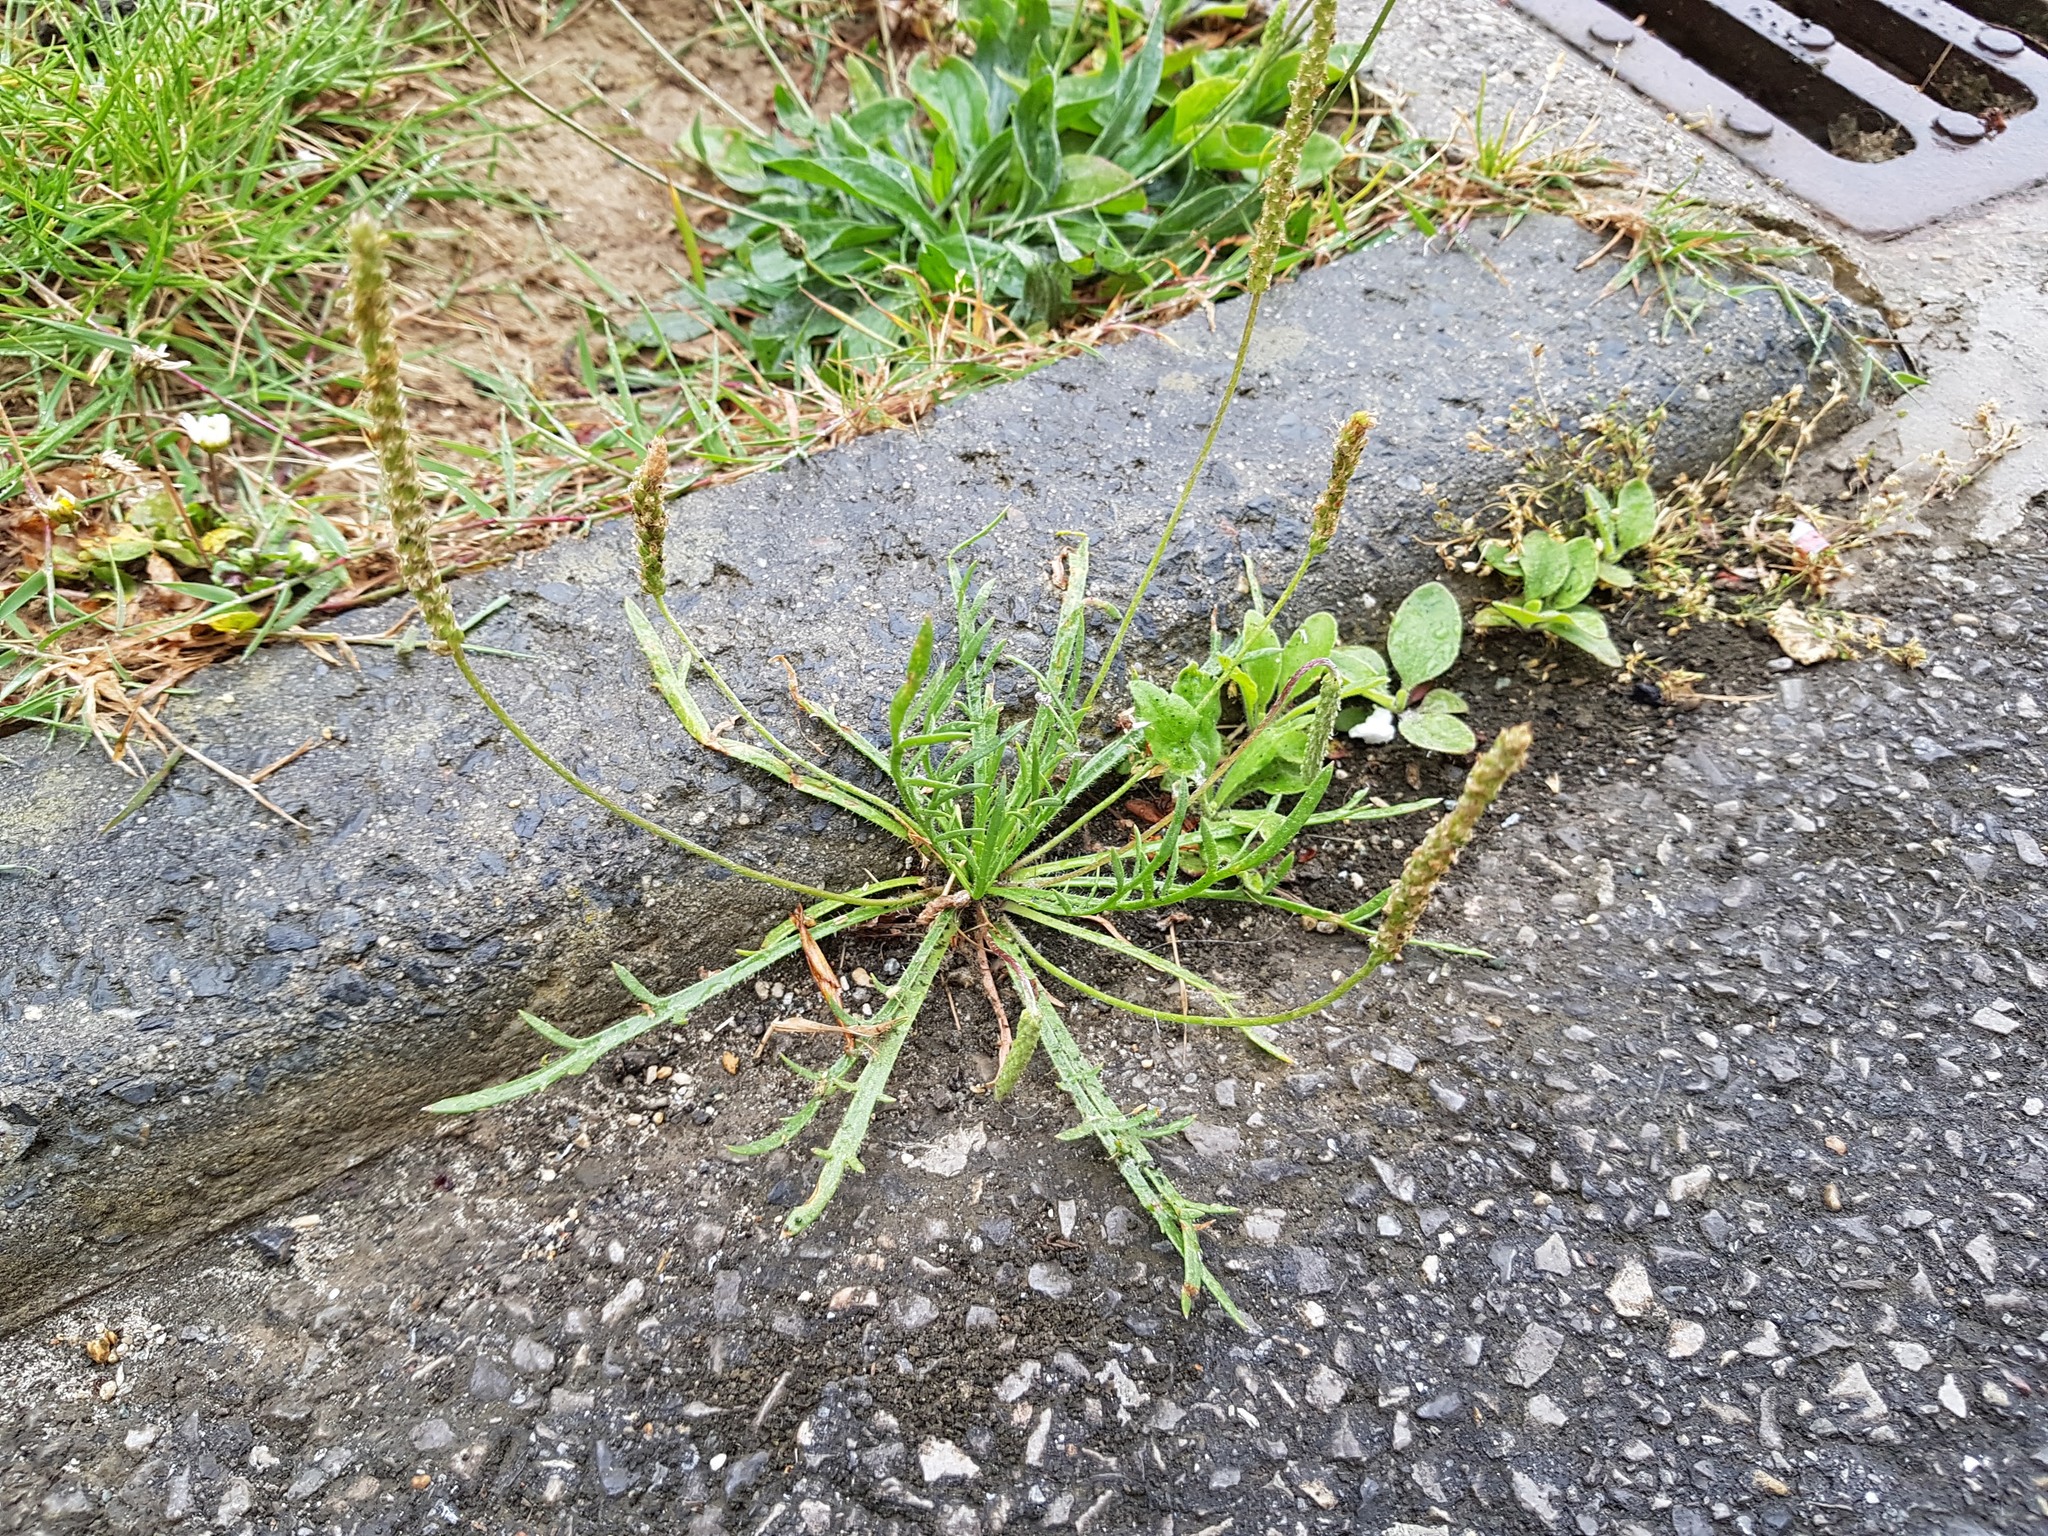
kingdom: Plantae
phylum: Tracheophyta
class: Magnoliopsida
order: Lamiales
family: Plantaginaceae
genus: Plantago
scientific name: Plantago coronopus
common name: Buck's-horn plantain
